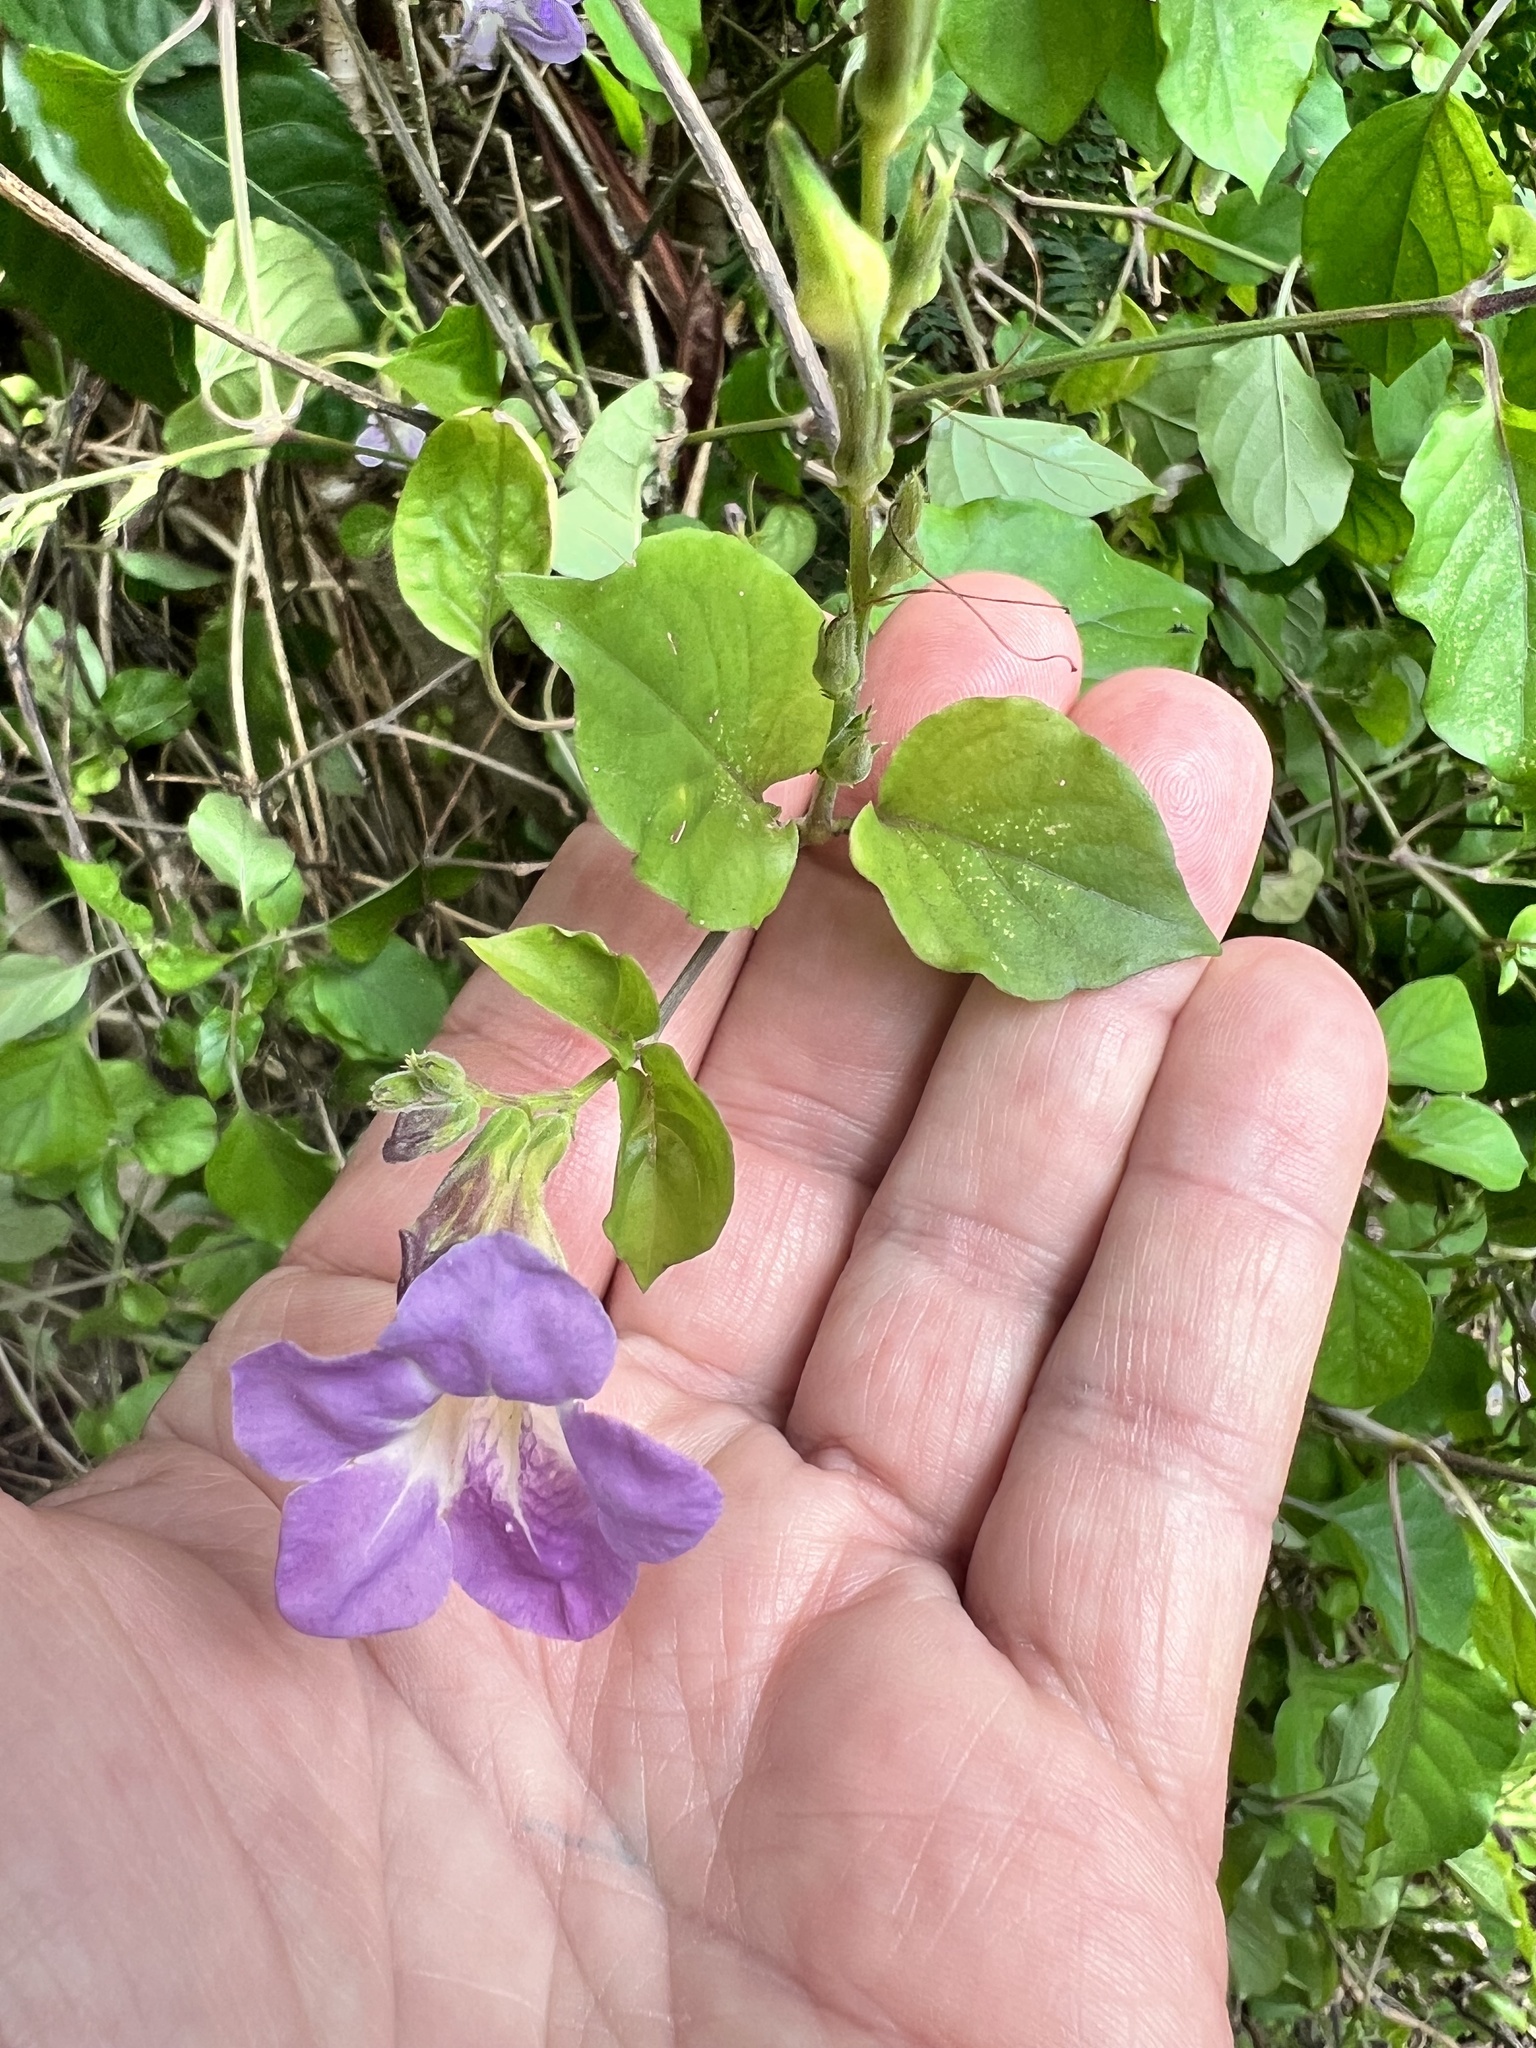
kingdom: Plantae
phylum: Tracheophyta
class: Magnoliopsida
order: Lamiales
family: Acanthaceae
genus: Asystasia
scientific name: Asystasia gangetica
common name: Chinese violet
